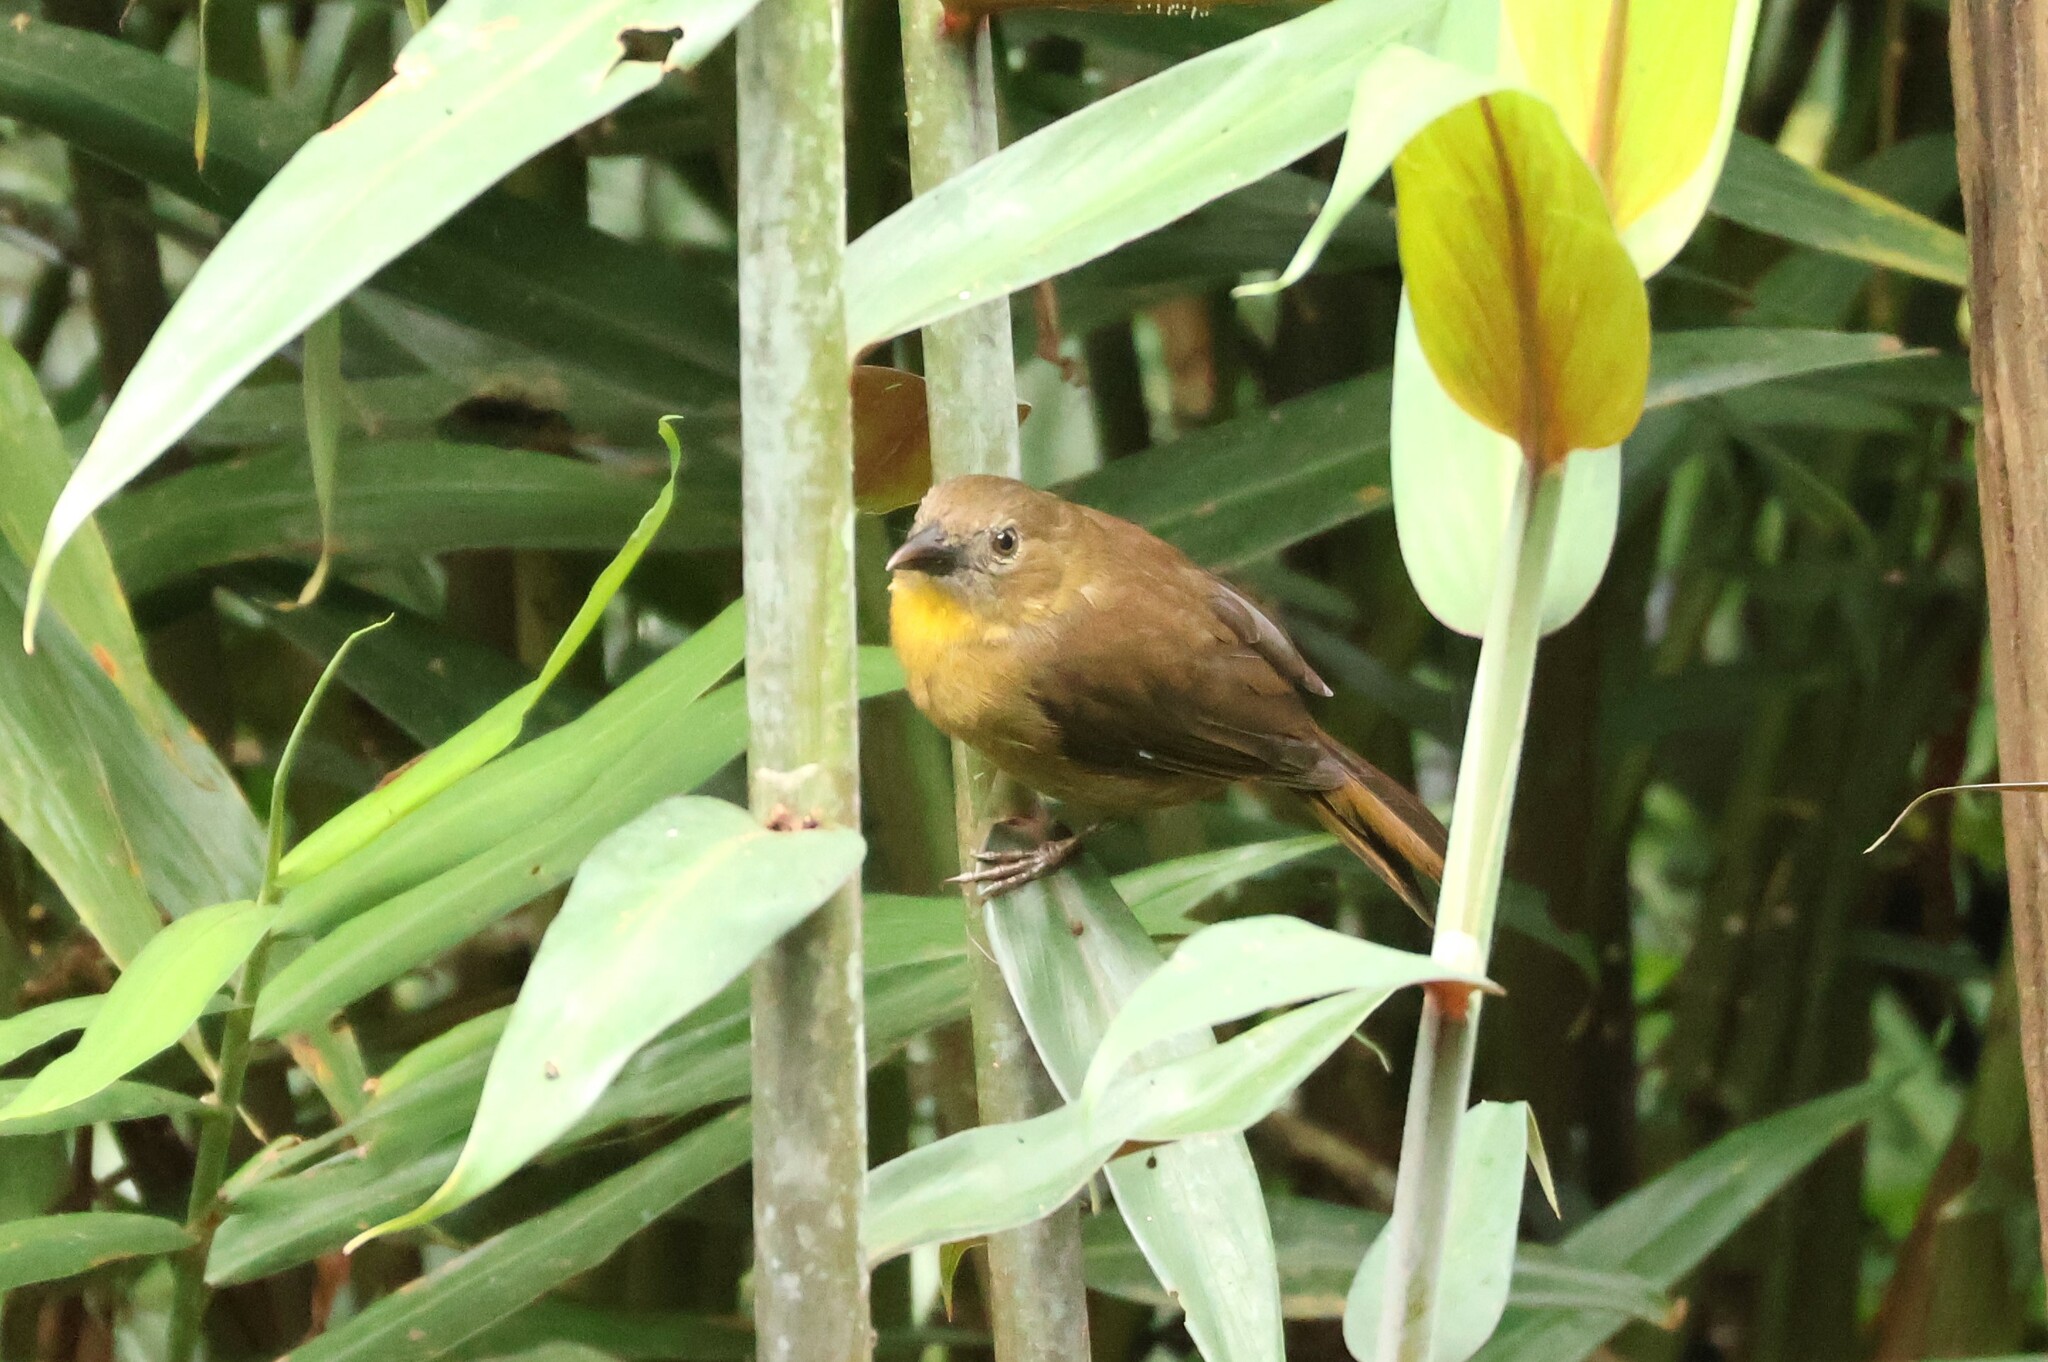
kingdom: Animalia
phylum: Chordata
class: Aves
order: Passeriformes
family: Cardinalidae
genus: Habia
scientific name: Habia fuscicauda
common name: Red-throated ant-tanager
